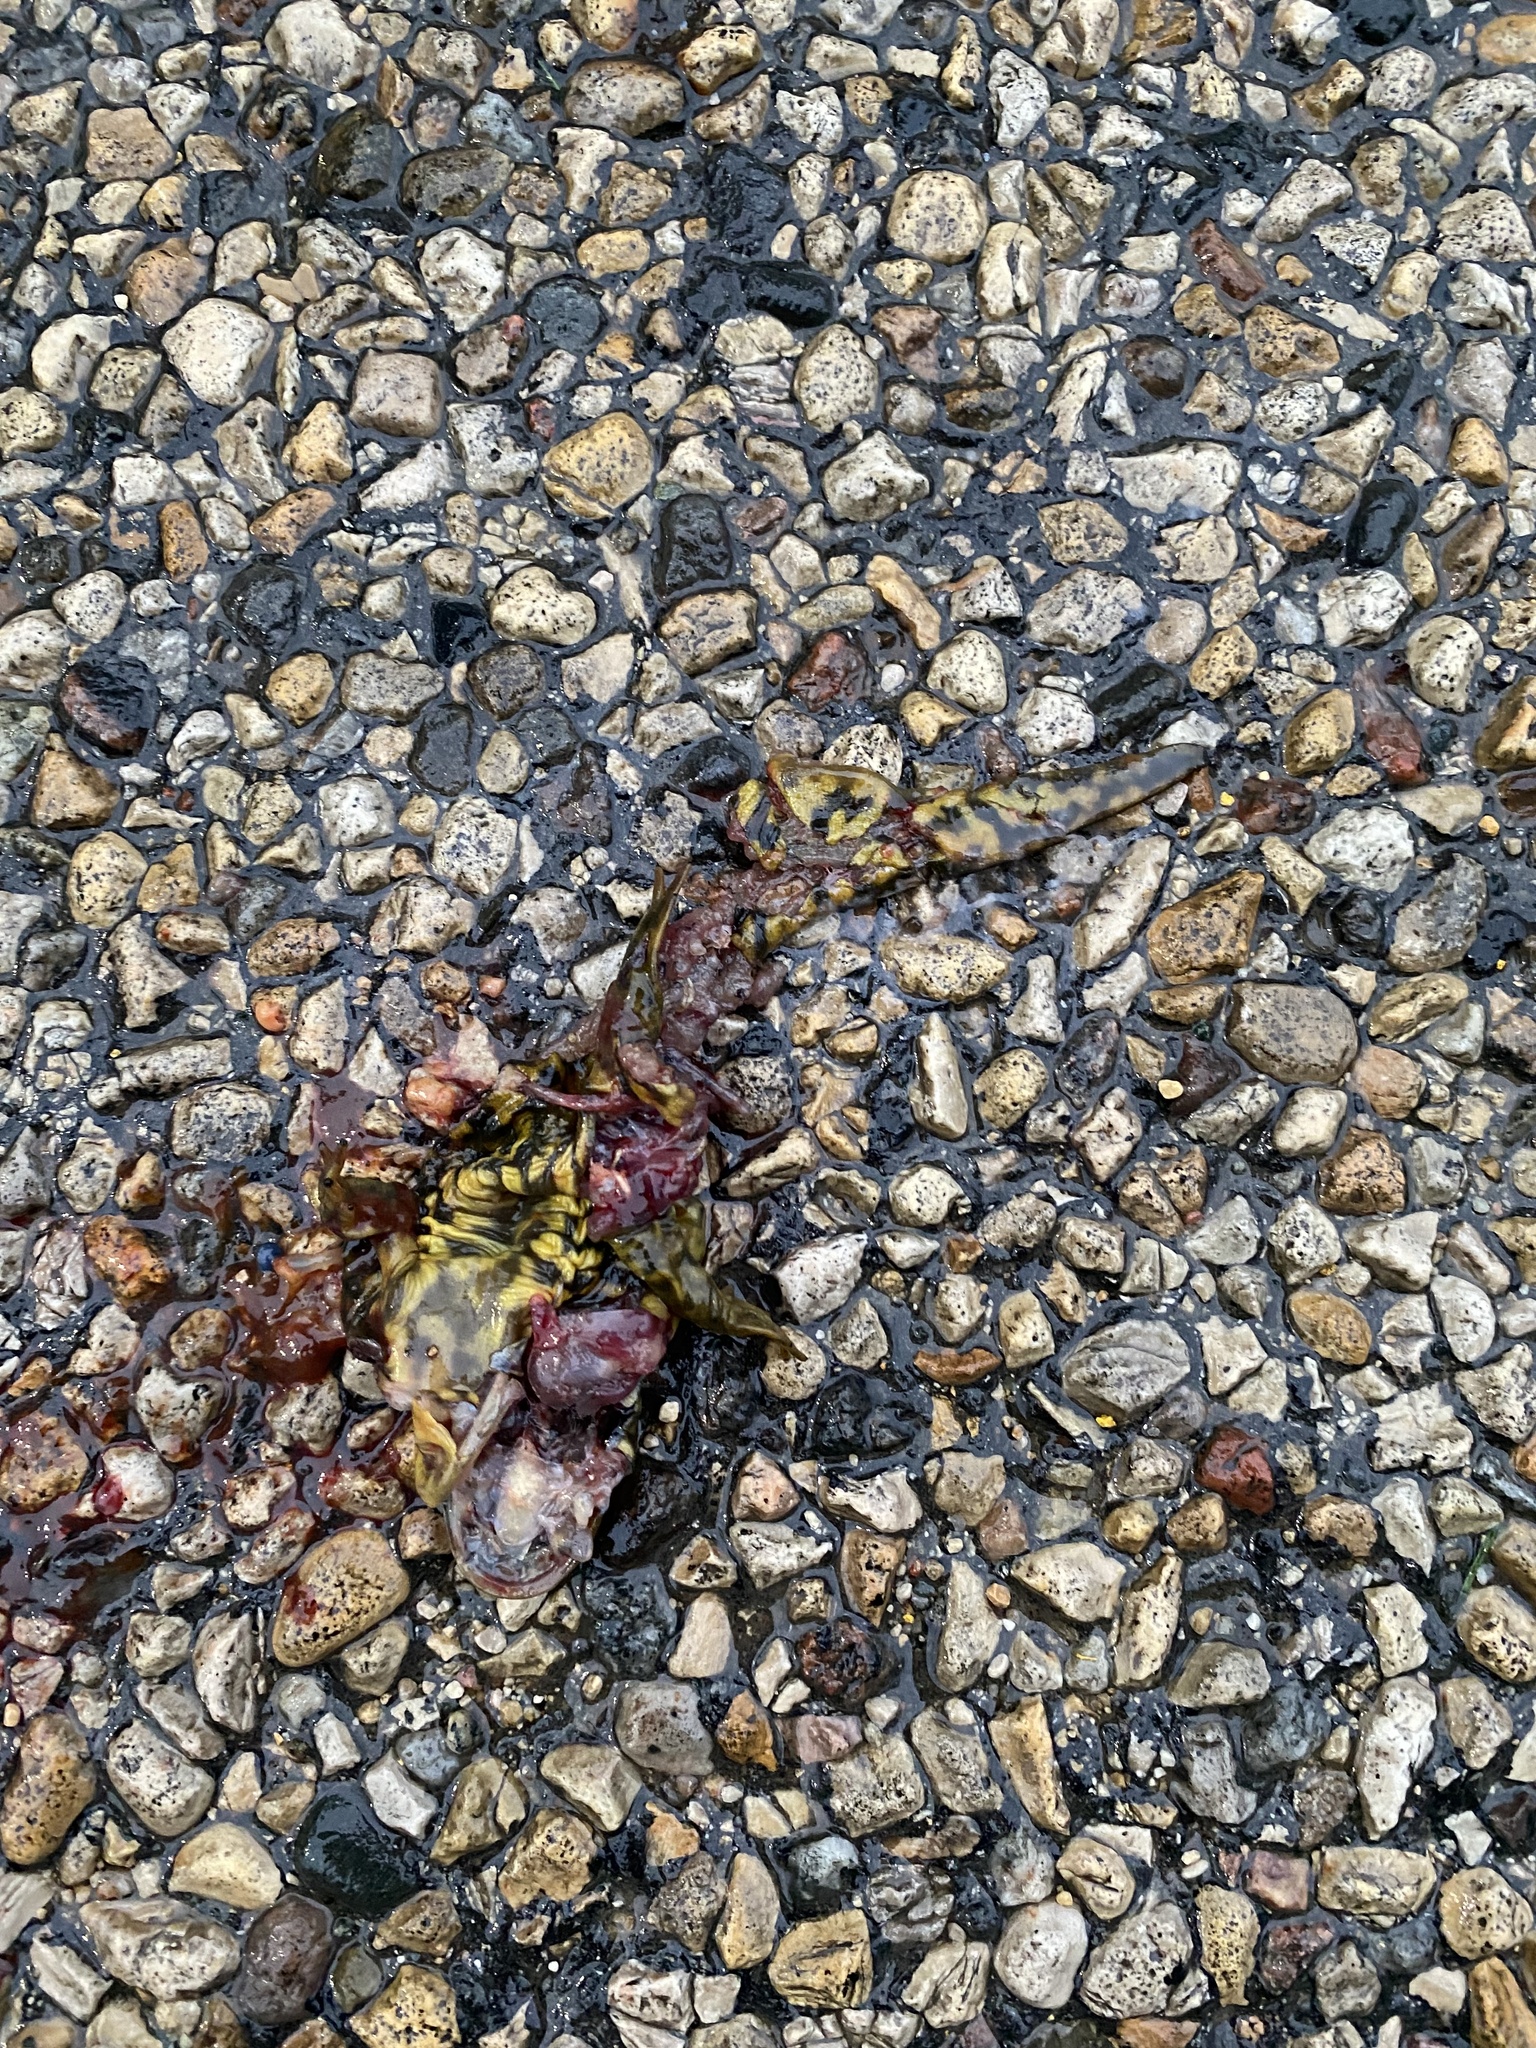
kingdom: Animalia
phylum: Chordata
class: Amphibia
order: Caudata
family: Ambystomatidae
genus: Ambystoma
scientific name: Ambystoma mavortium
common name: Western tiger salamander
